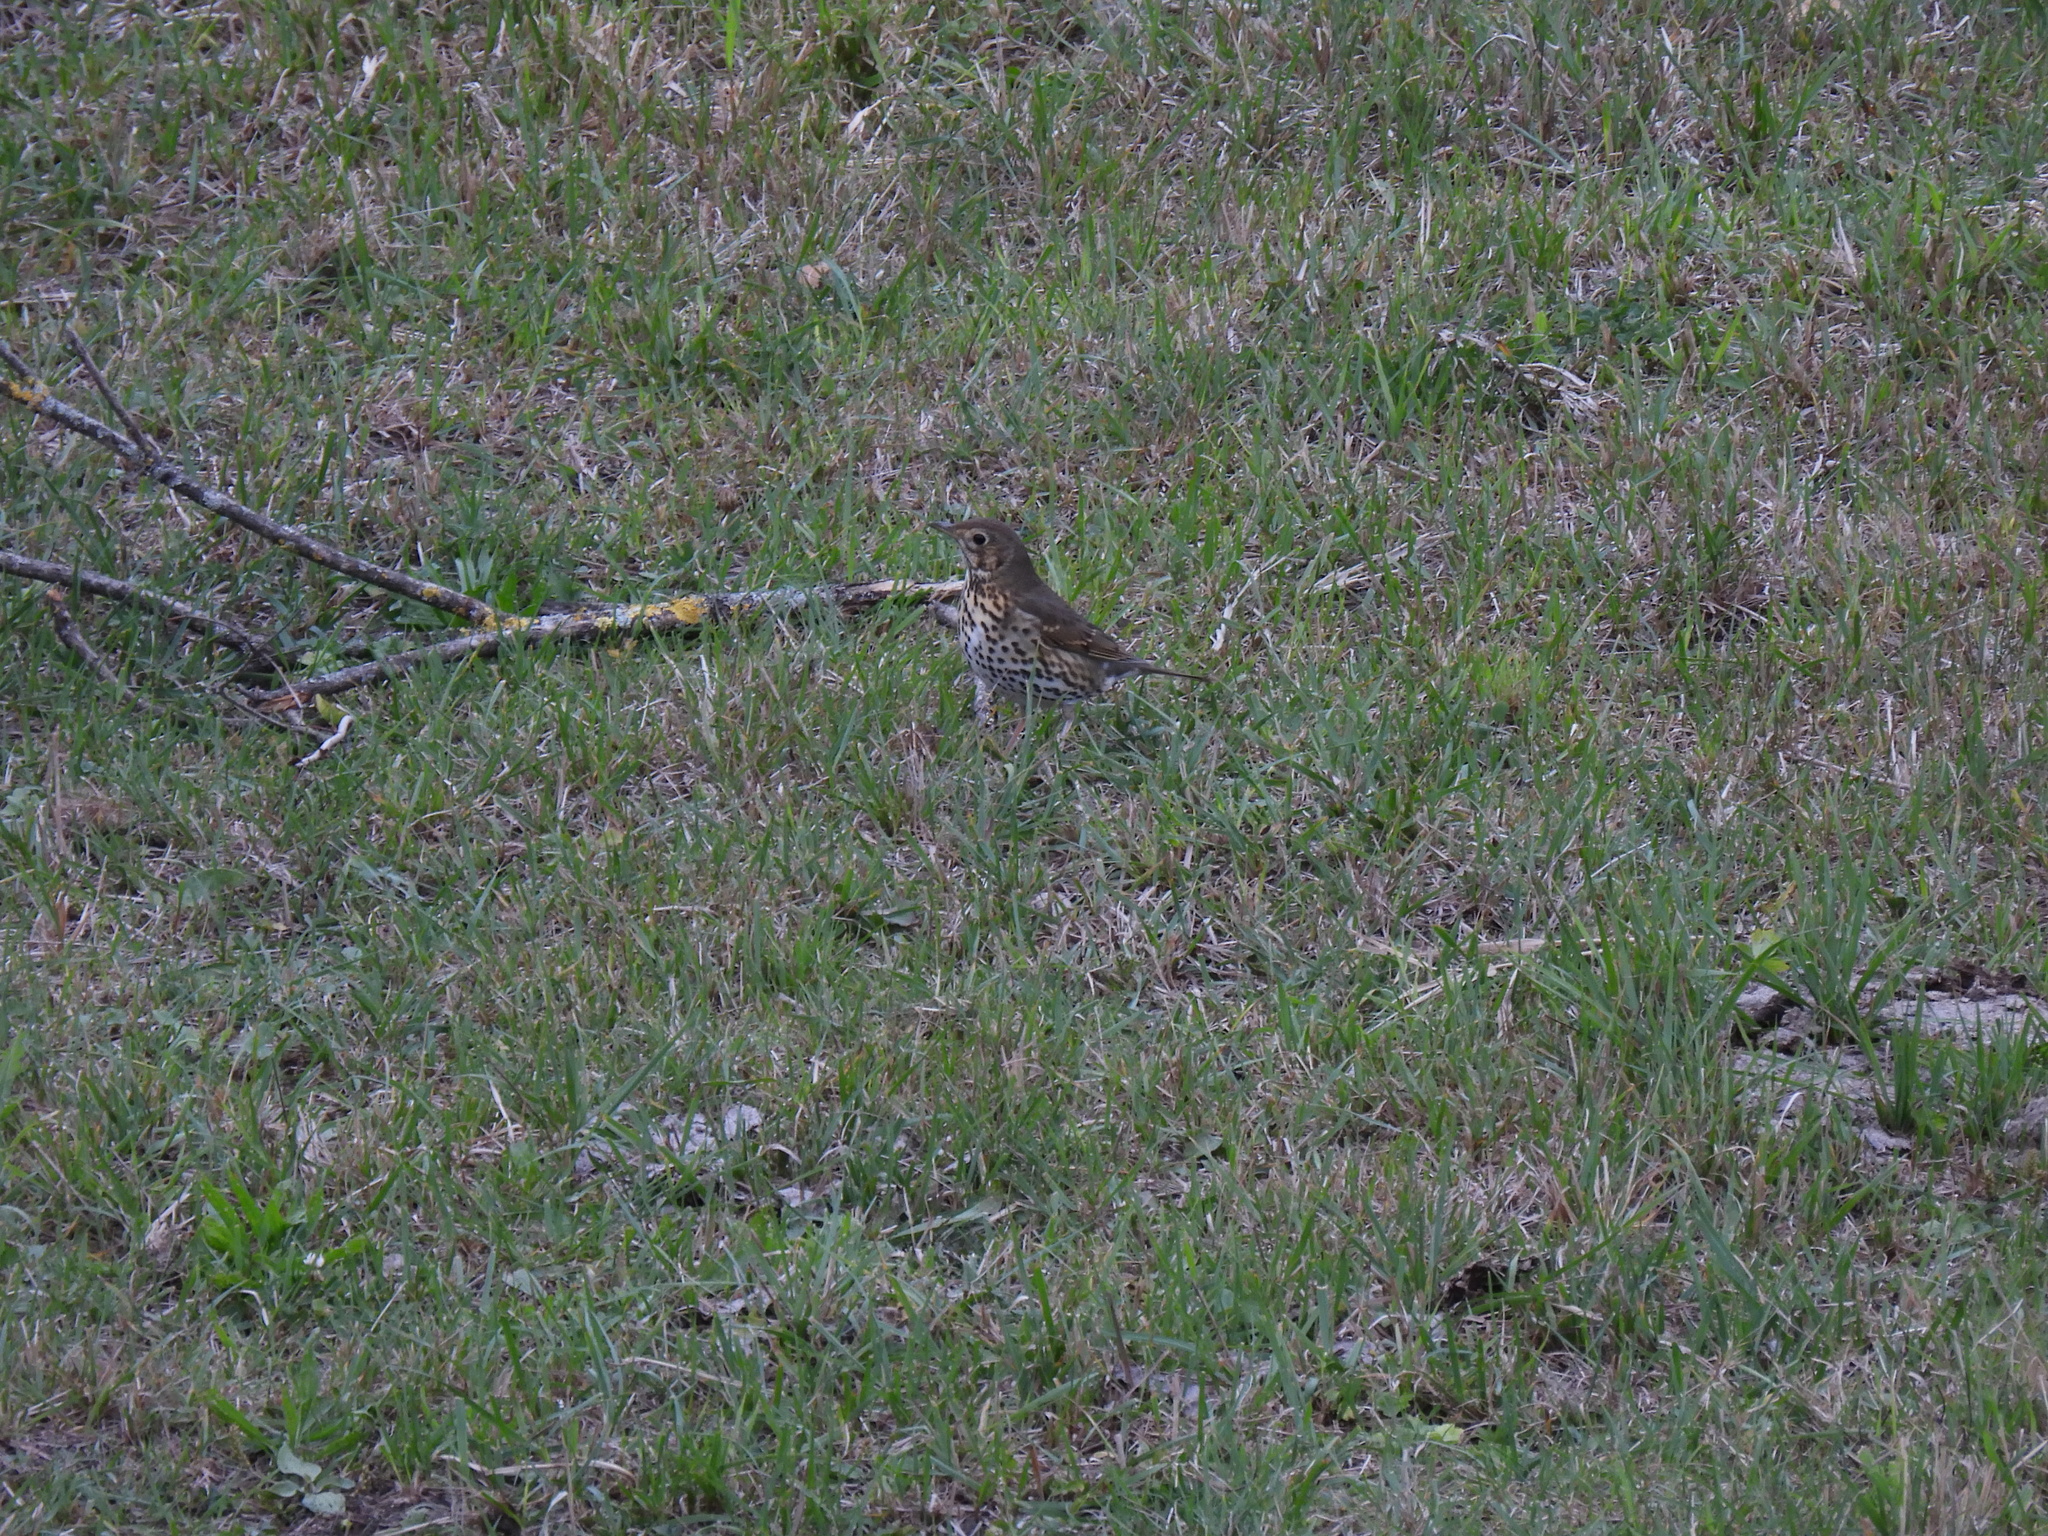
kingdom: Animalia
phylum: Chordata
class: Aves
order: Passeriformes
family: Turdidae
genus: Turdus
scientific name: Turdus philomelos
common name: Song thrush
